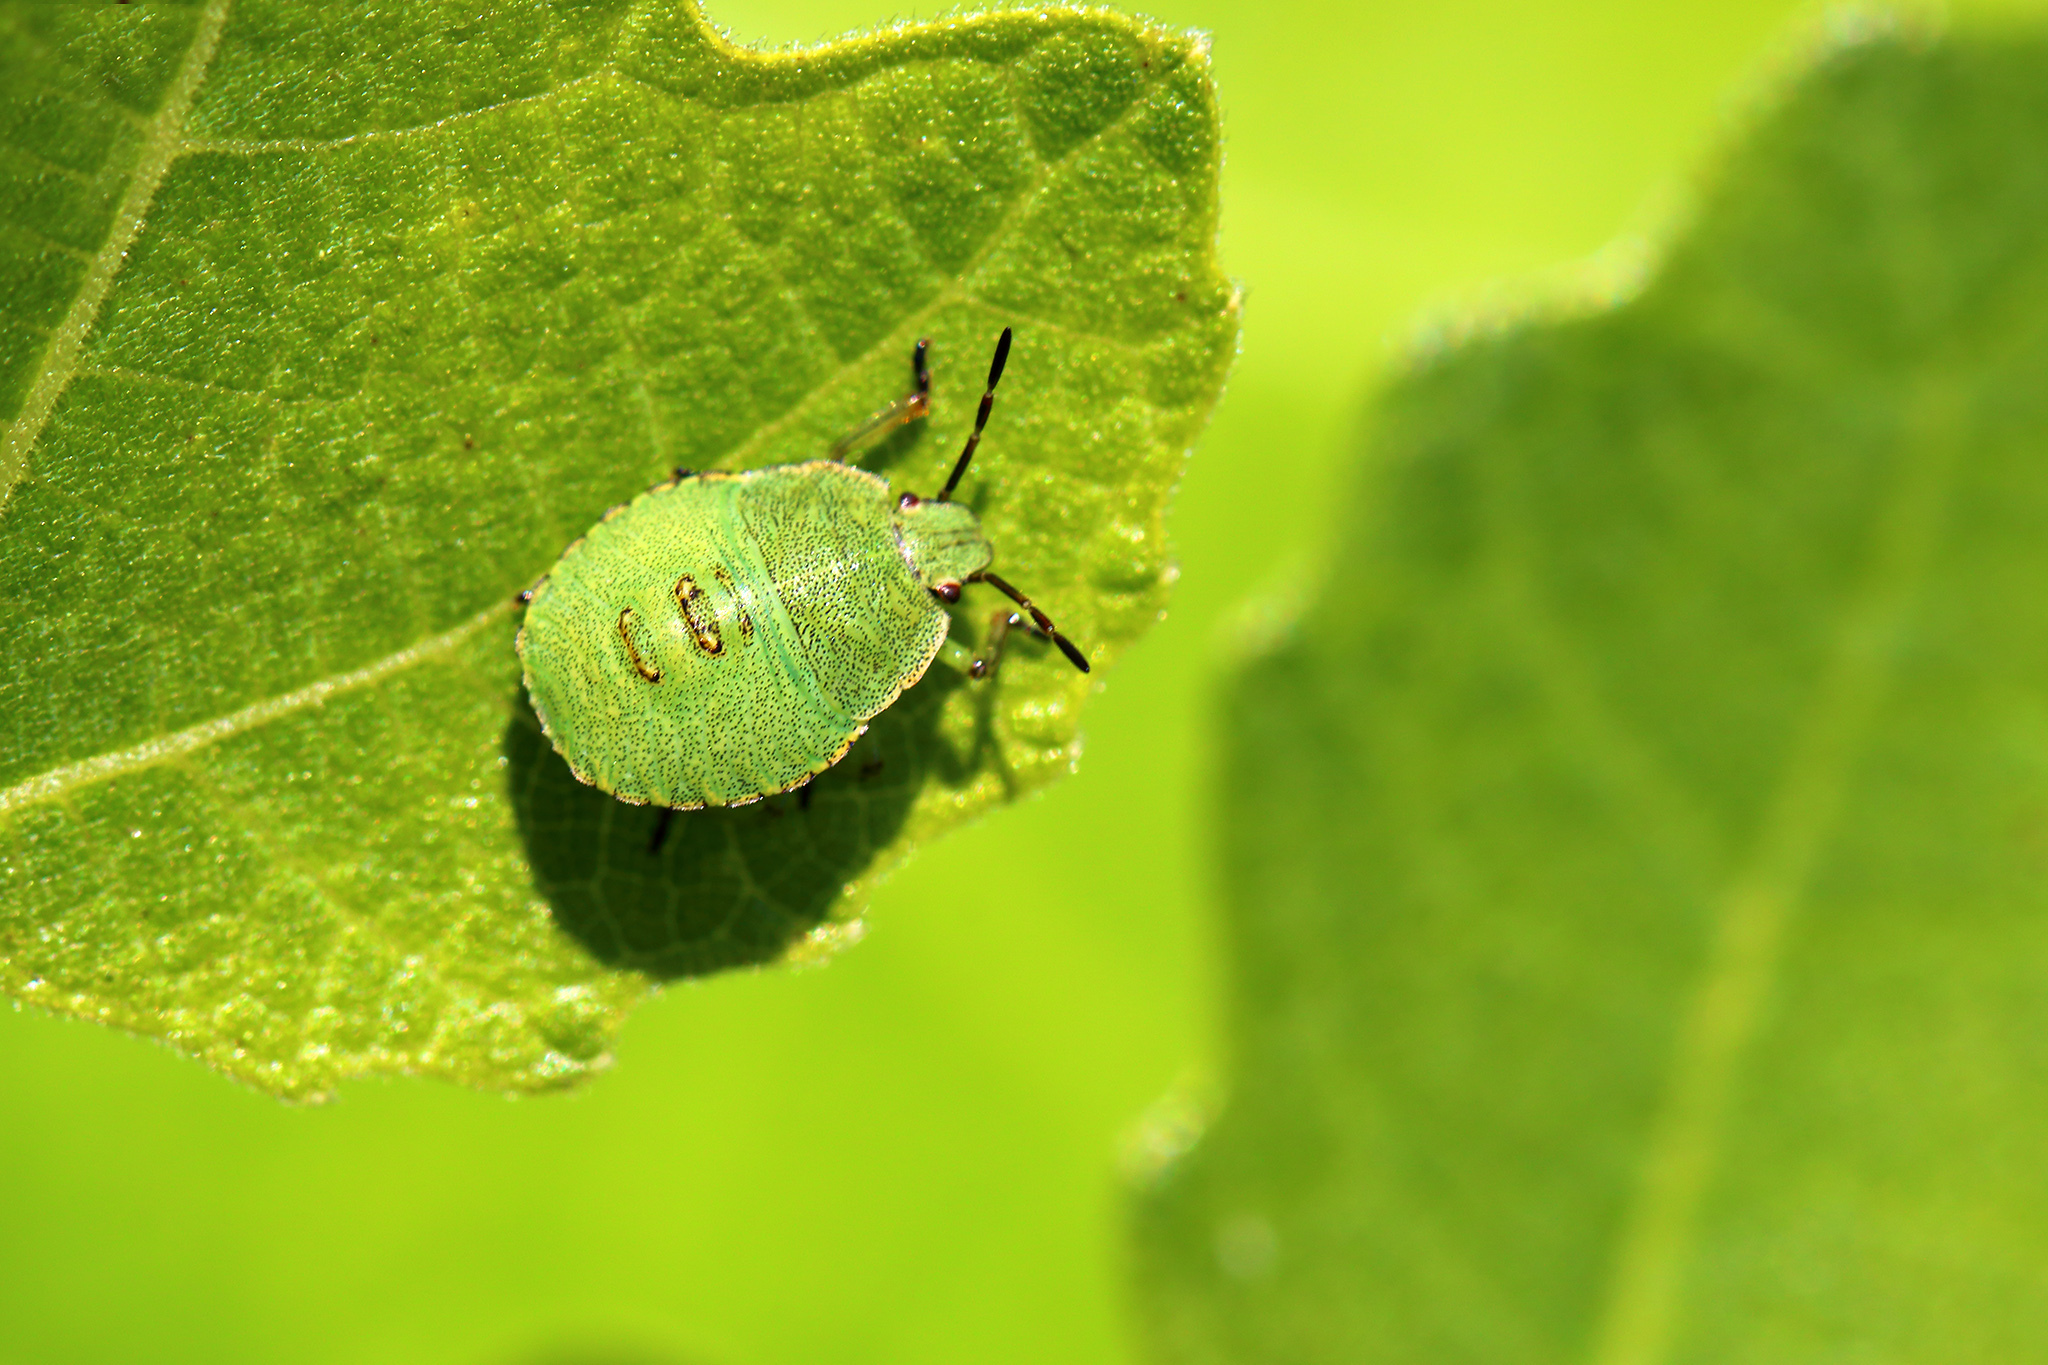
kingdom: Animalia
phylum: Arthropoda
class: Insecta
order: Hemiptera
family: Pentatomidae
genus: Palomena
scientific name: Palomena prasina
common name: Green shieldbug
